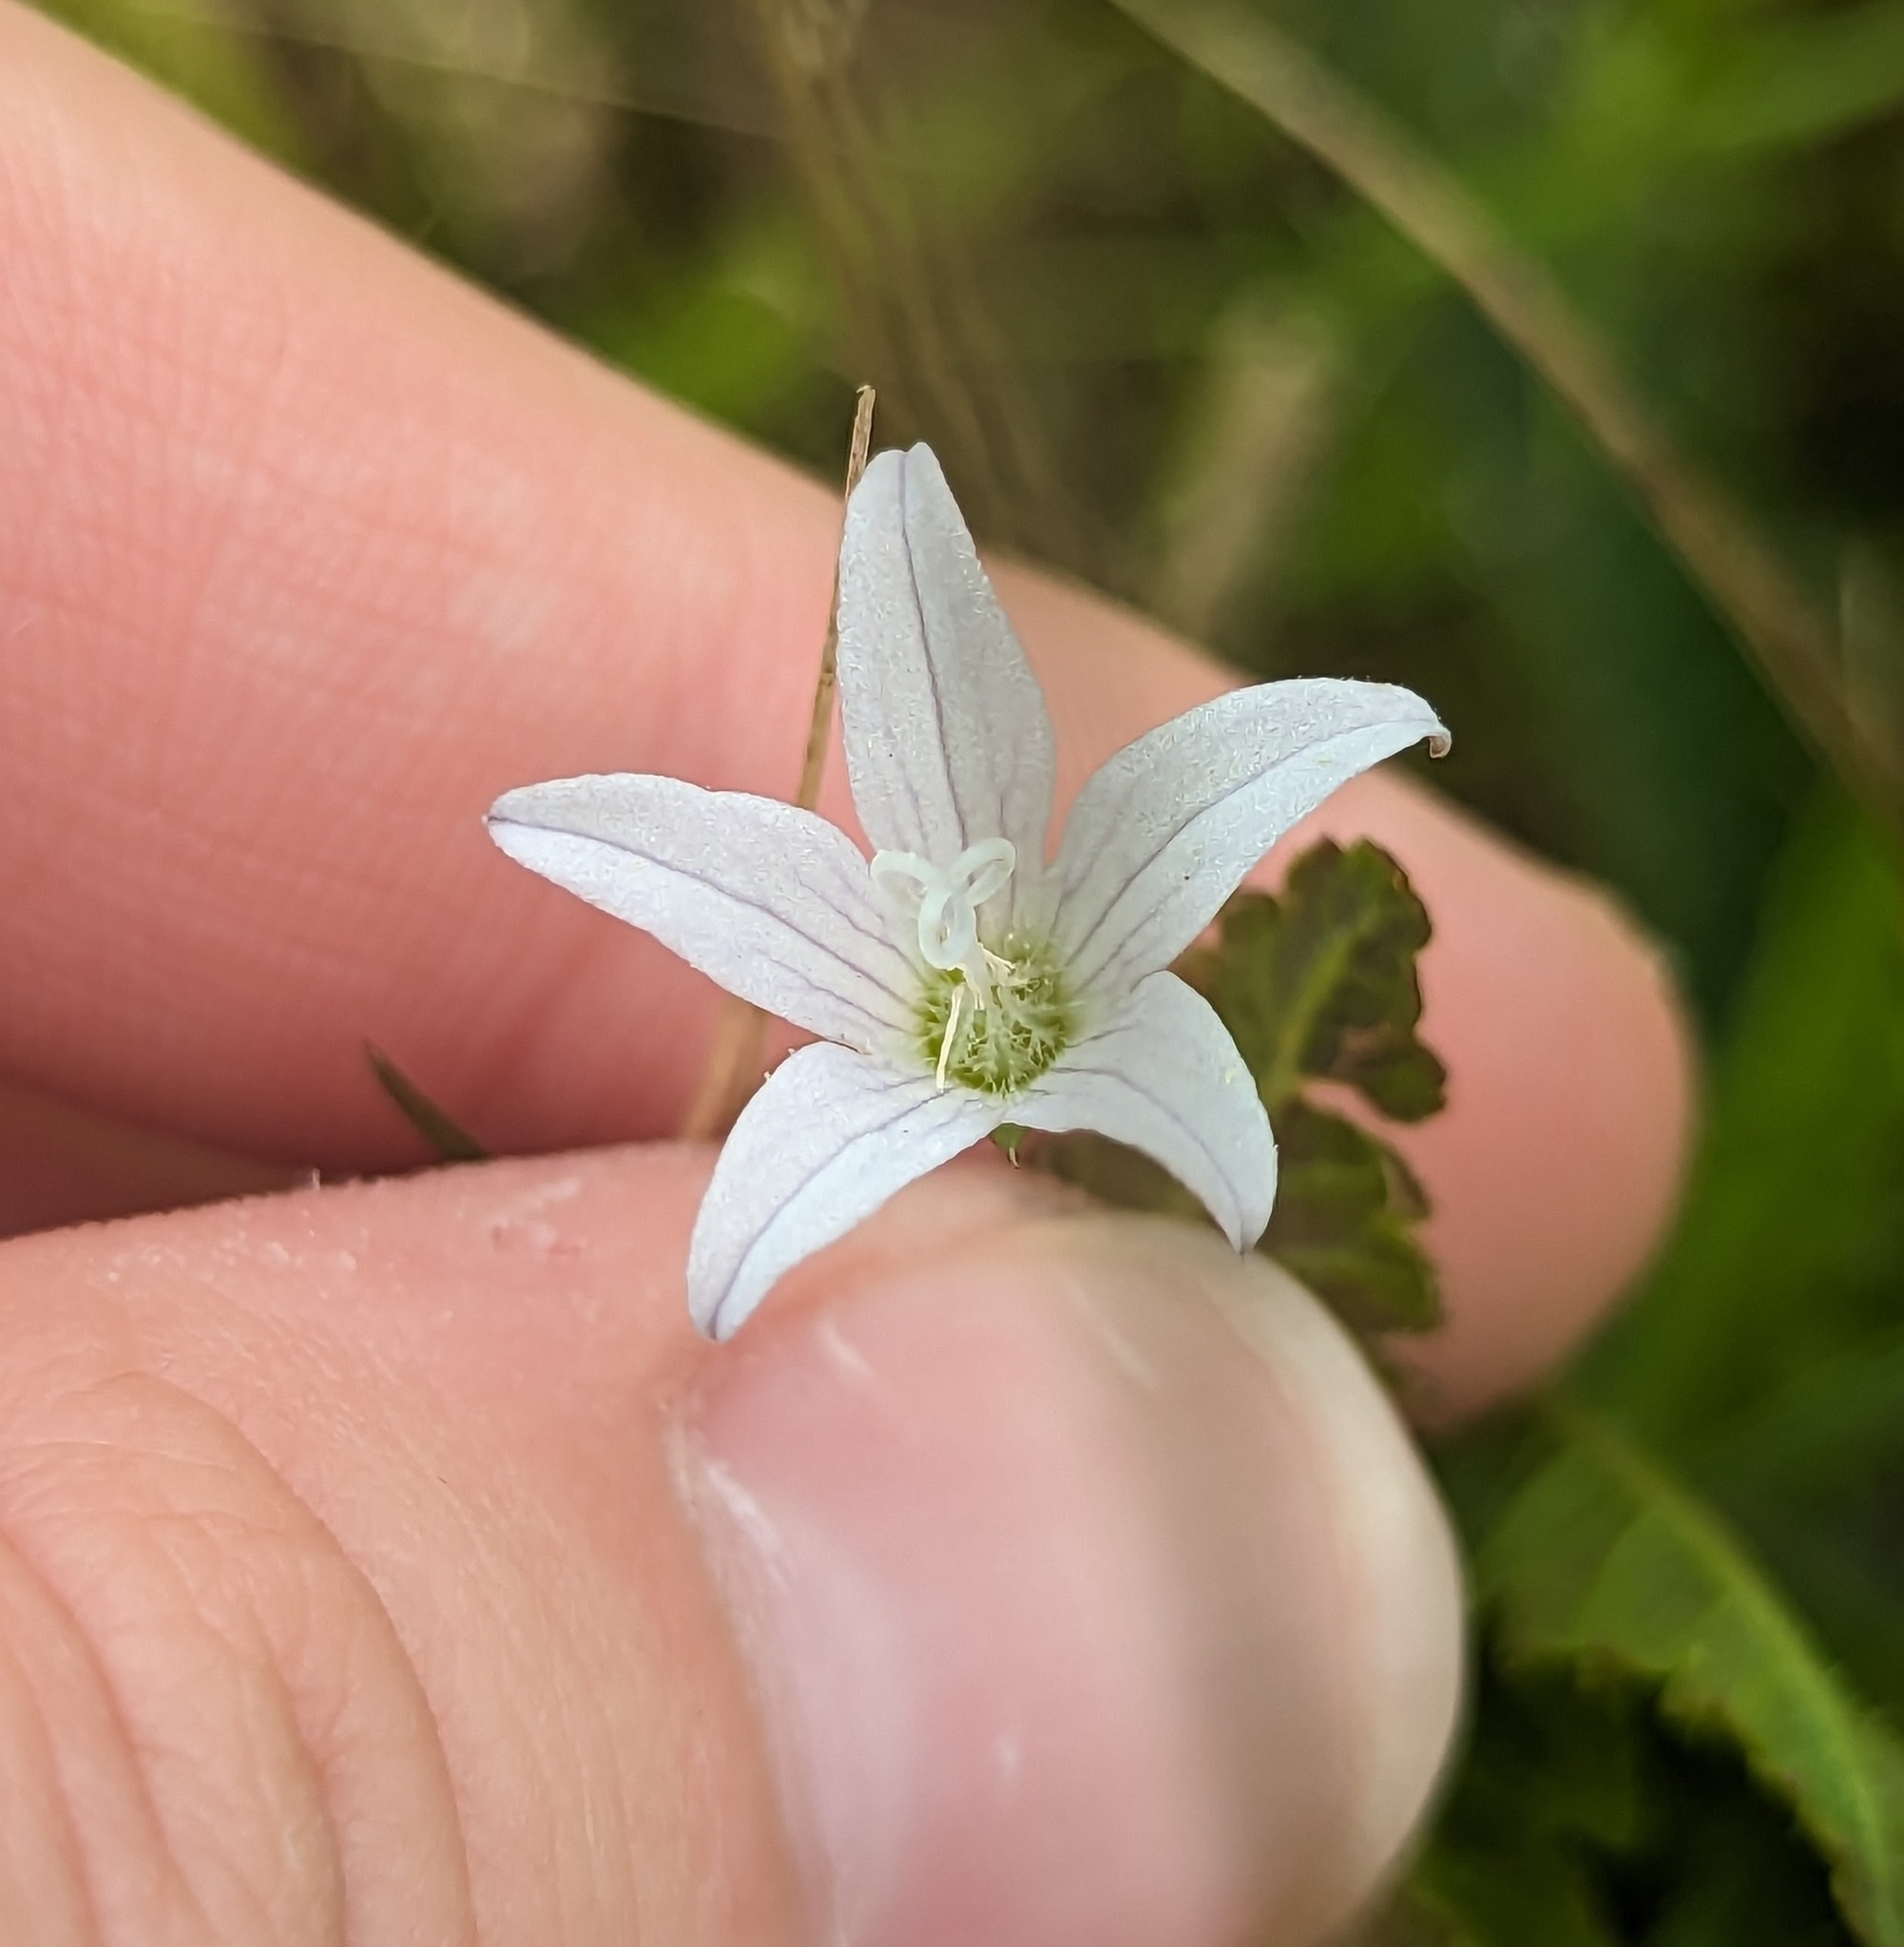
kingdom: Plantae
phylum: Tracheophyta
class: Magnoliopsida
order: Asterales
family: Campanulaceae
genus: Palustricodon
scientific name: Palustricodon aparinoides
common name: Bedstraw bellflower
